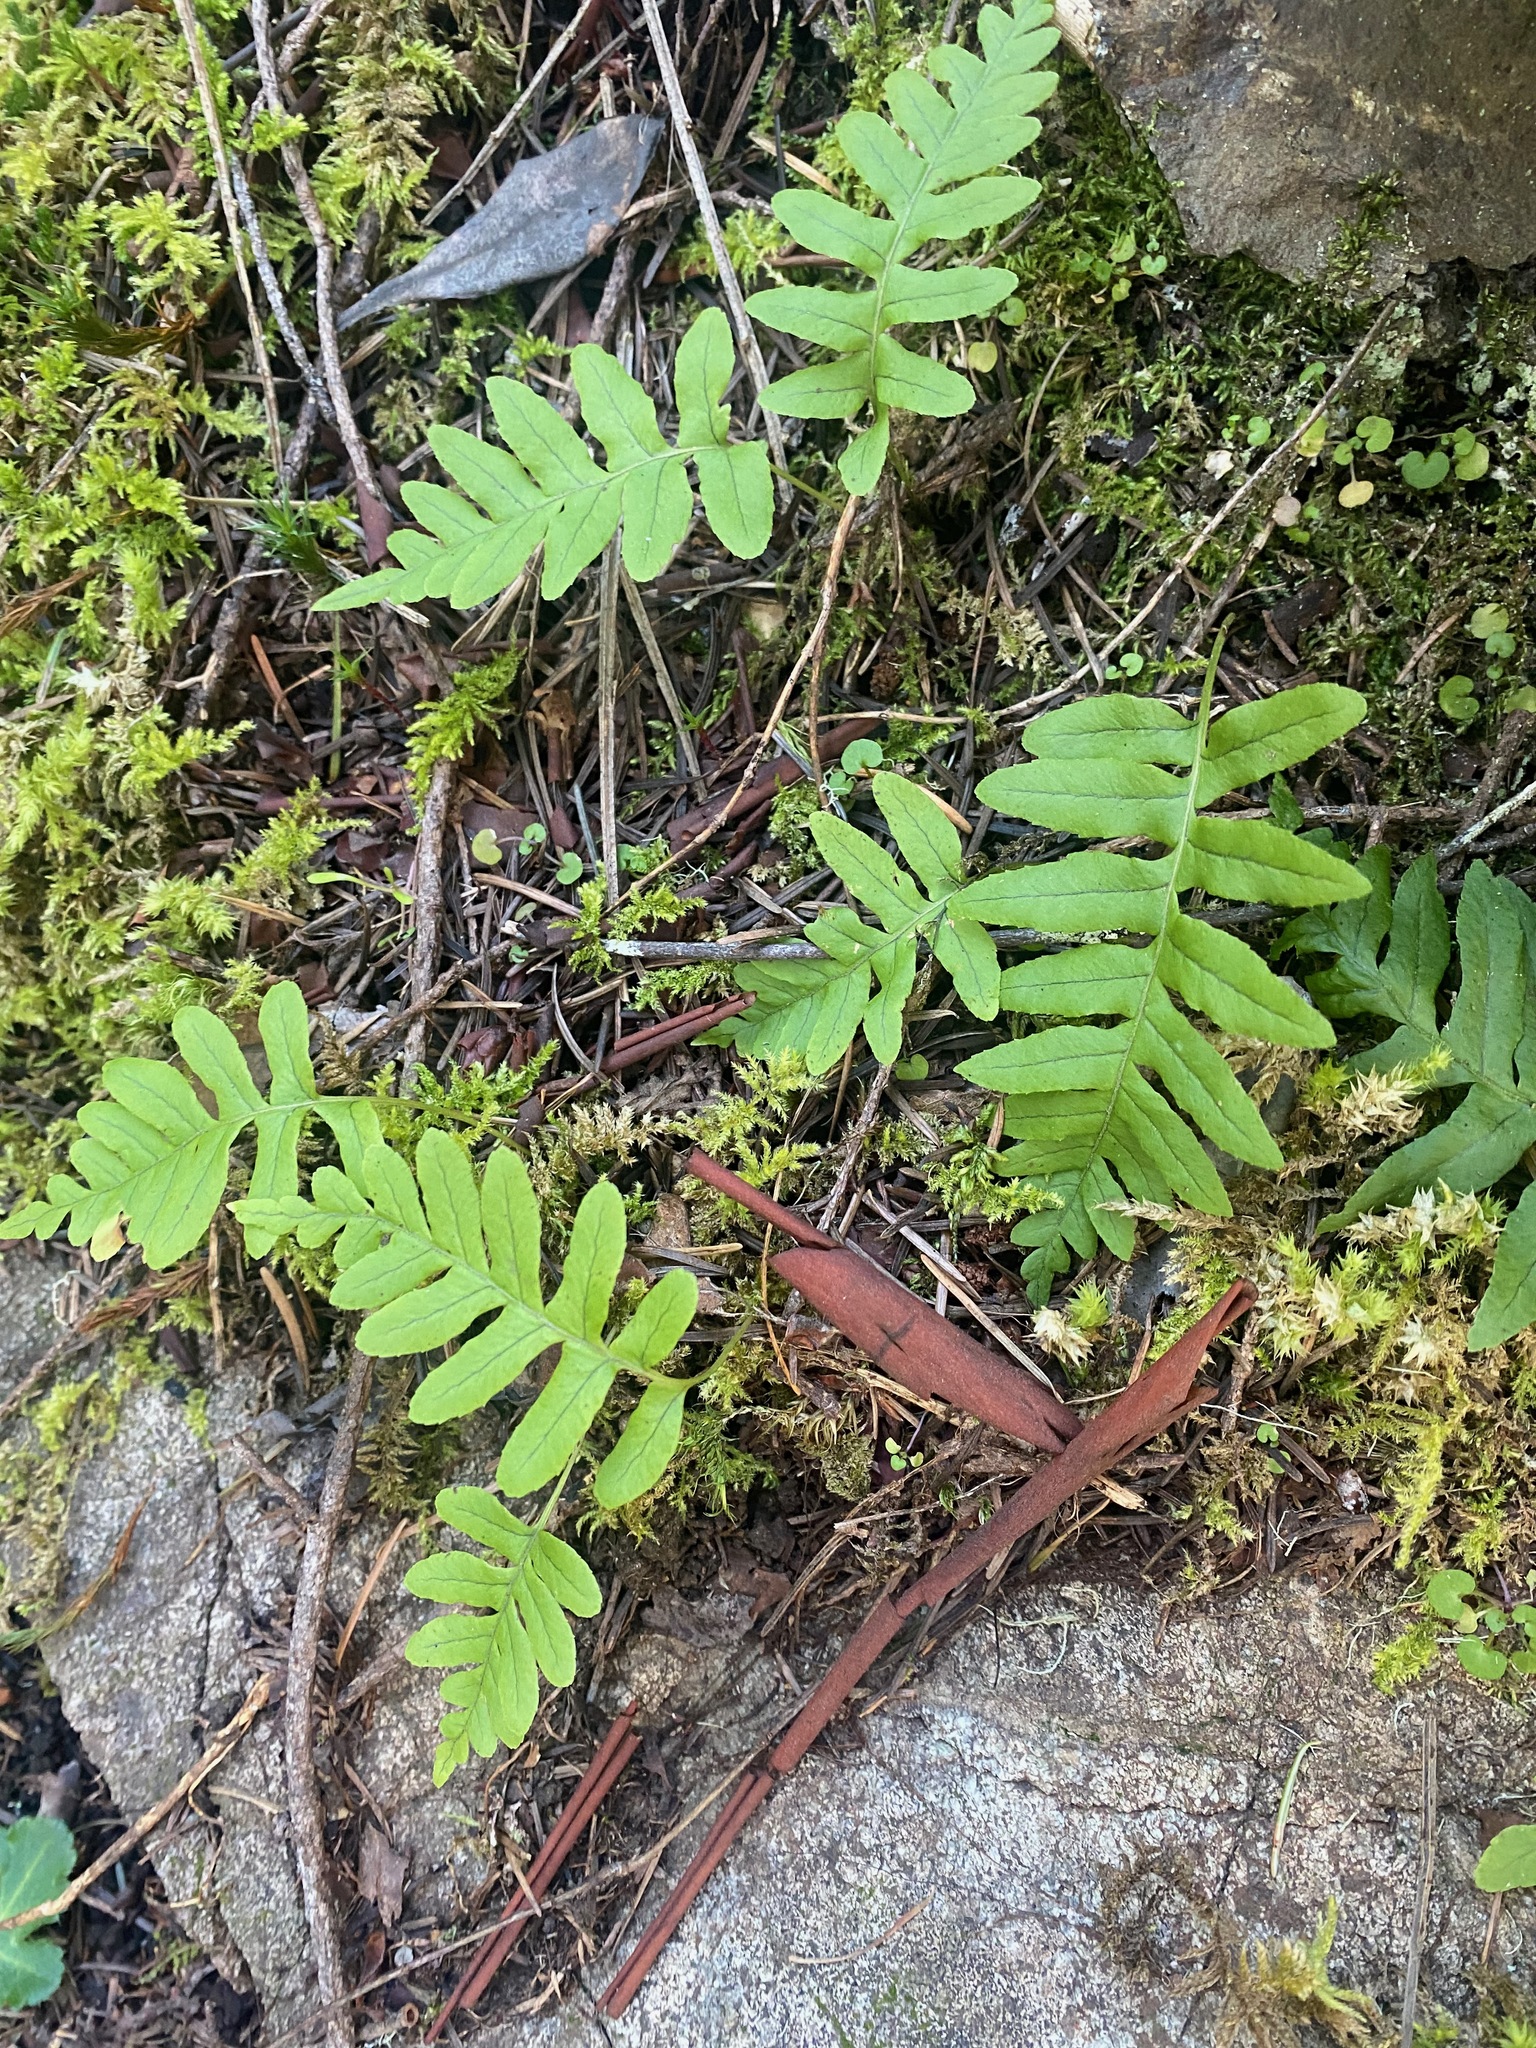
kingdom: Plantae
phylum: Tracheophyta
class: Polypodiopsida
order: Polypodiales
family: Polypodiaceae
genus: Polypodium
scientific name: Polypodium glycyrrhiza
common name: Licorice fern
